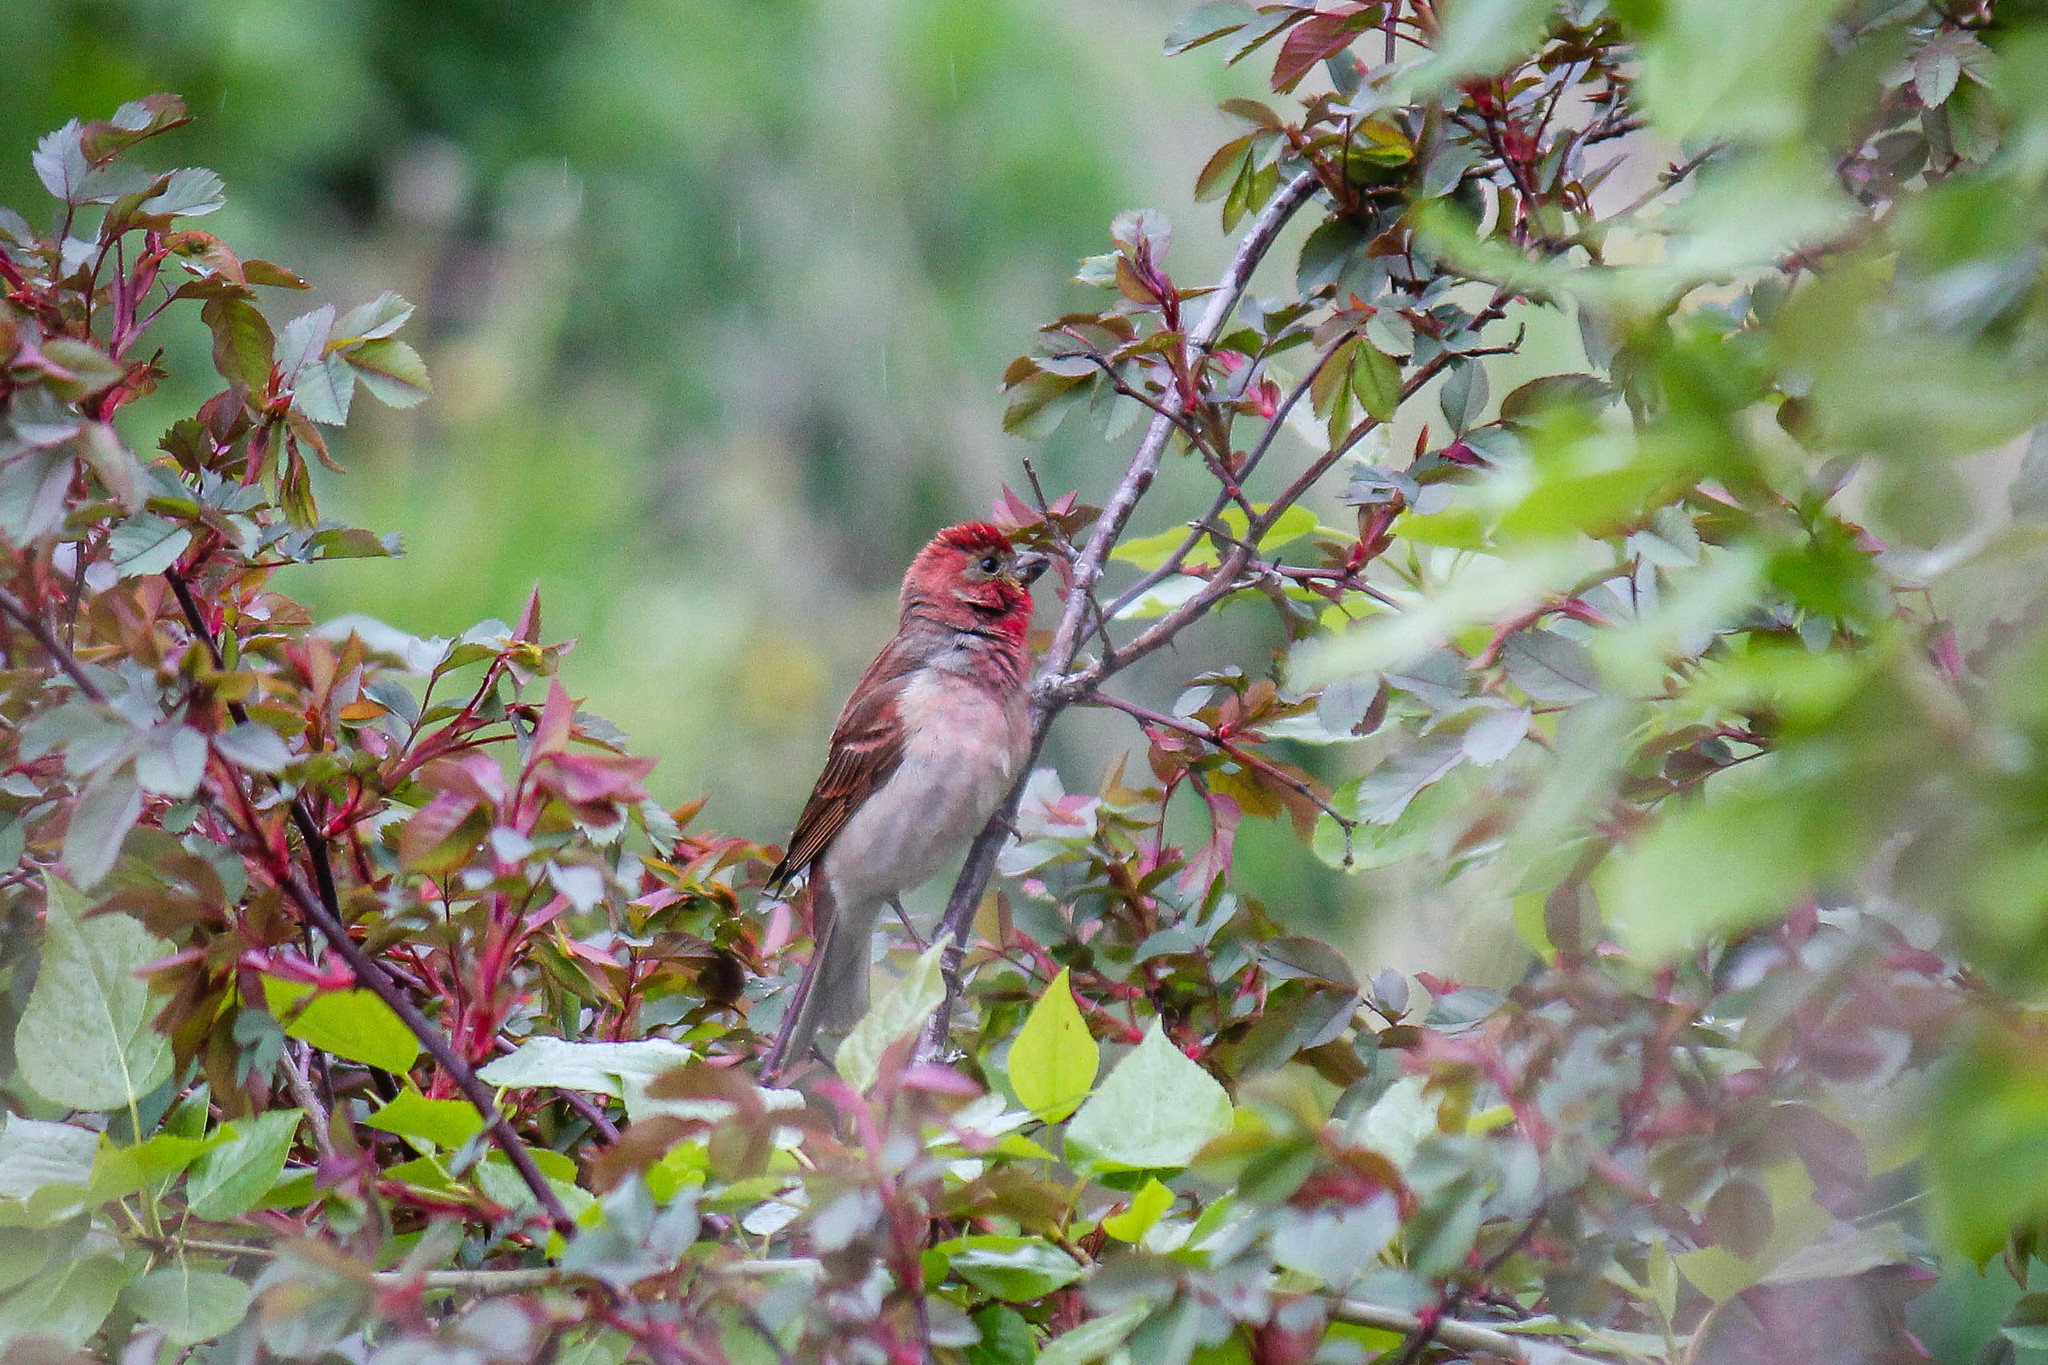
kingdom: Animalia
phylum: Chordata
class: Aves
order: Passeriformes
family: Fringillidae
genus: Carpodacus
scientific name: Carpodacus erythrinus
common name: Common rosefinch
